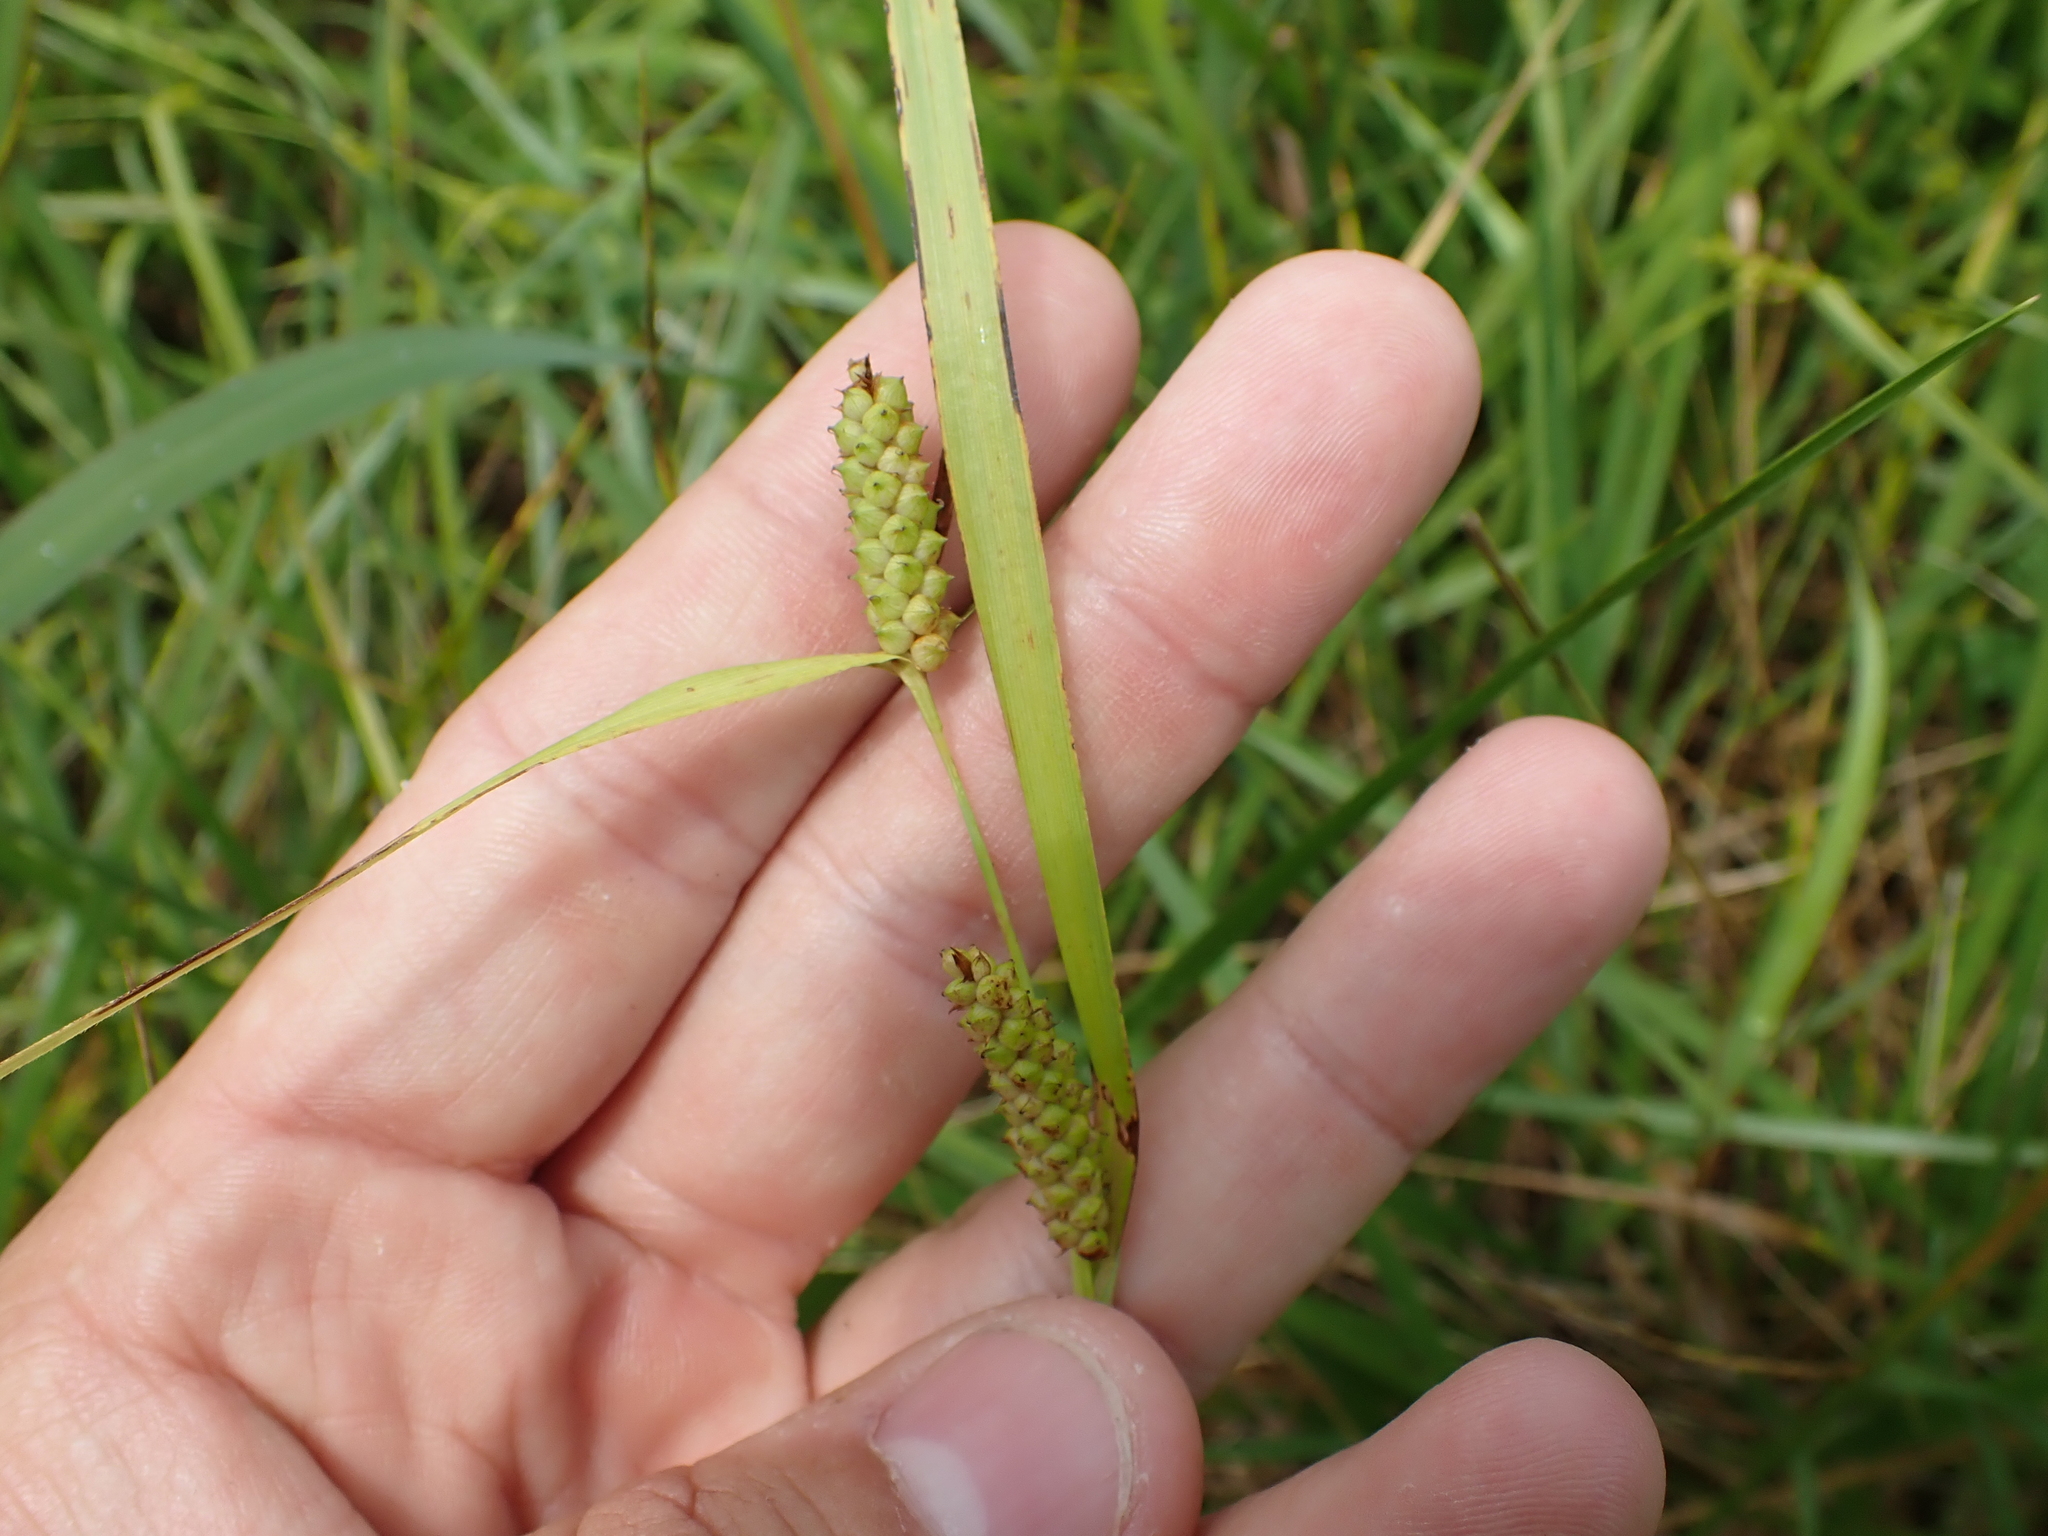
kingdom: Plantae
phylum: Tracheophyta
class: Liliopsida
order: Poales
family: Cyperaceae
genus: Carex
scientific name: Carex granularis
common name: Granular sedge
